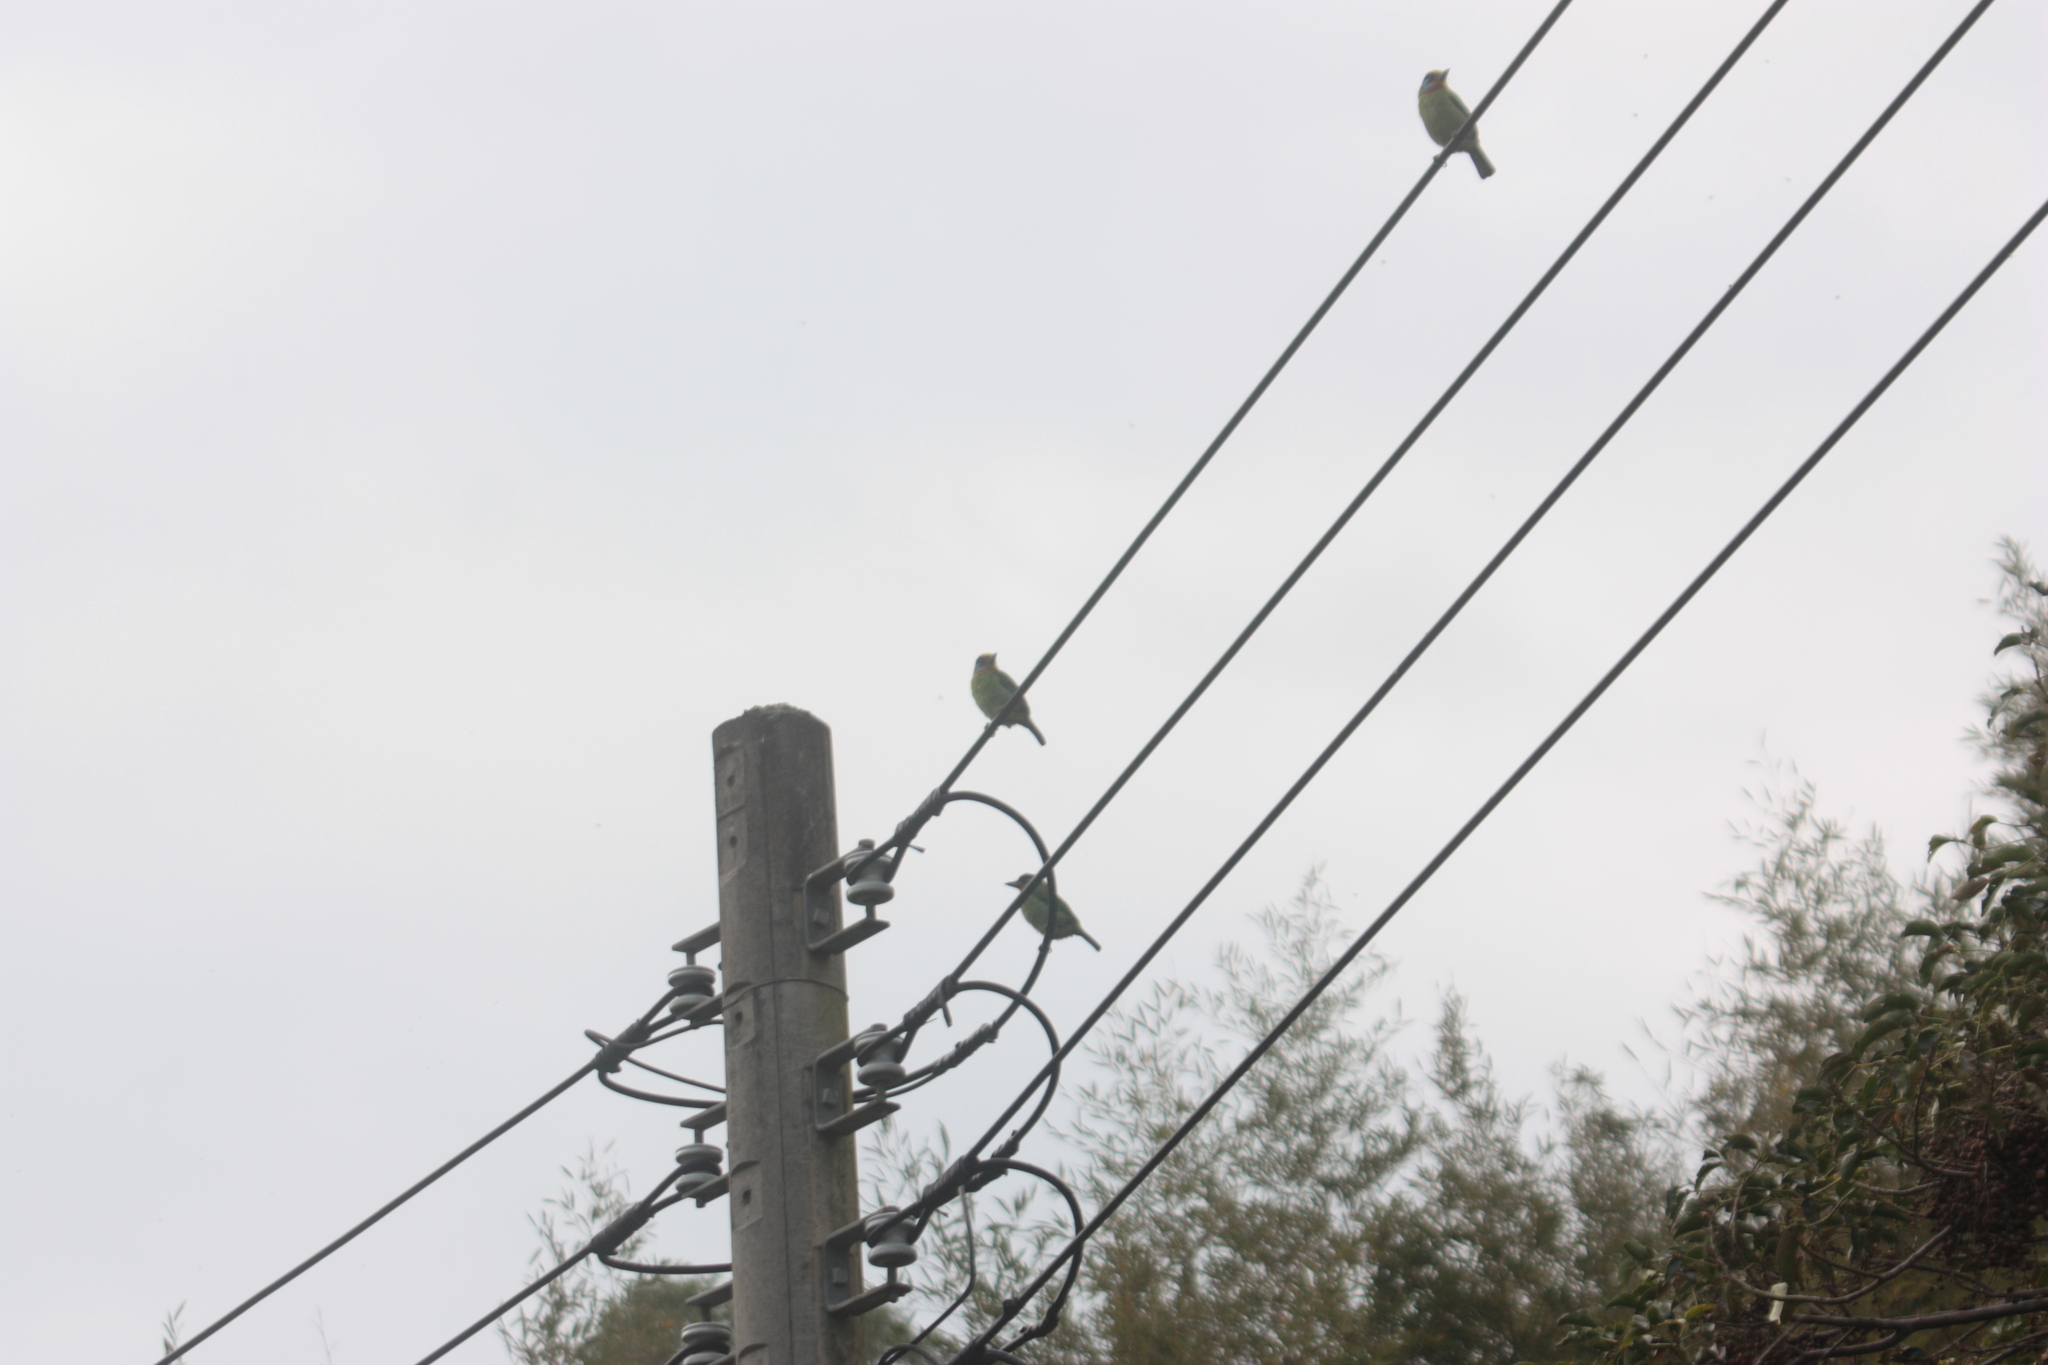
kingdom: Animalia
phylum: Chordata
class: Aves
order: Piciformes
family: Megalaimidae
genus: Psilopogon
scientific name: Psilopogon nuchalis
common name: Taiwan barbet
